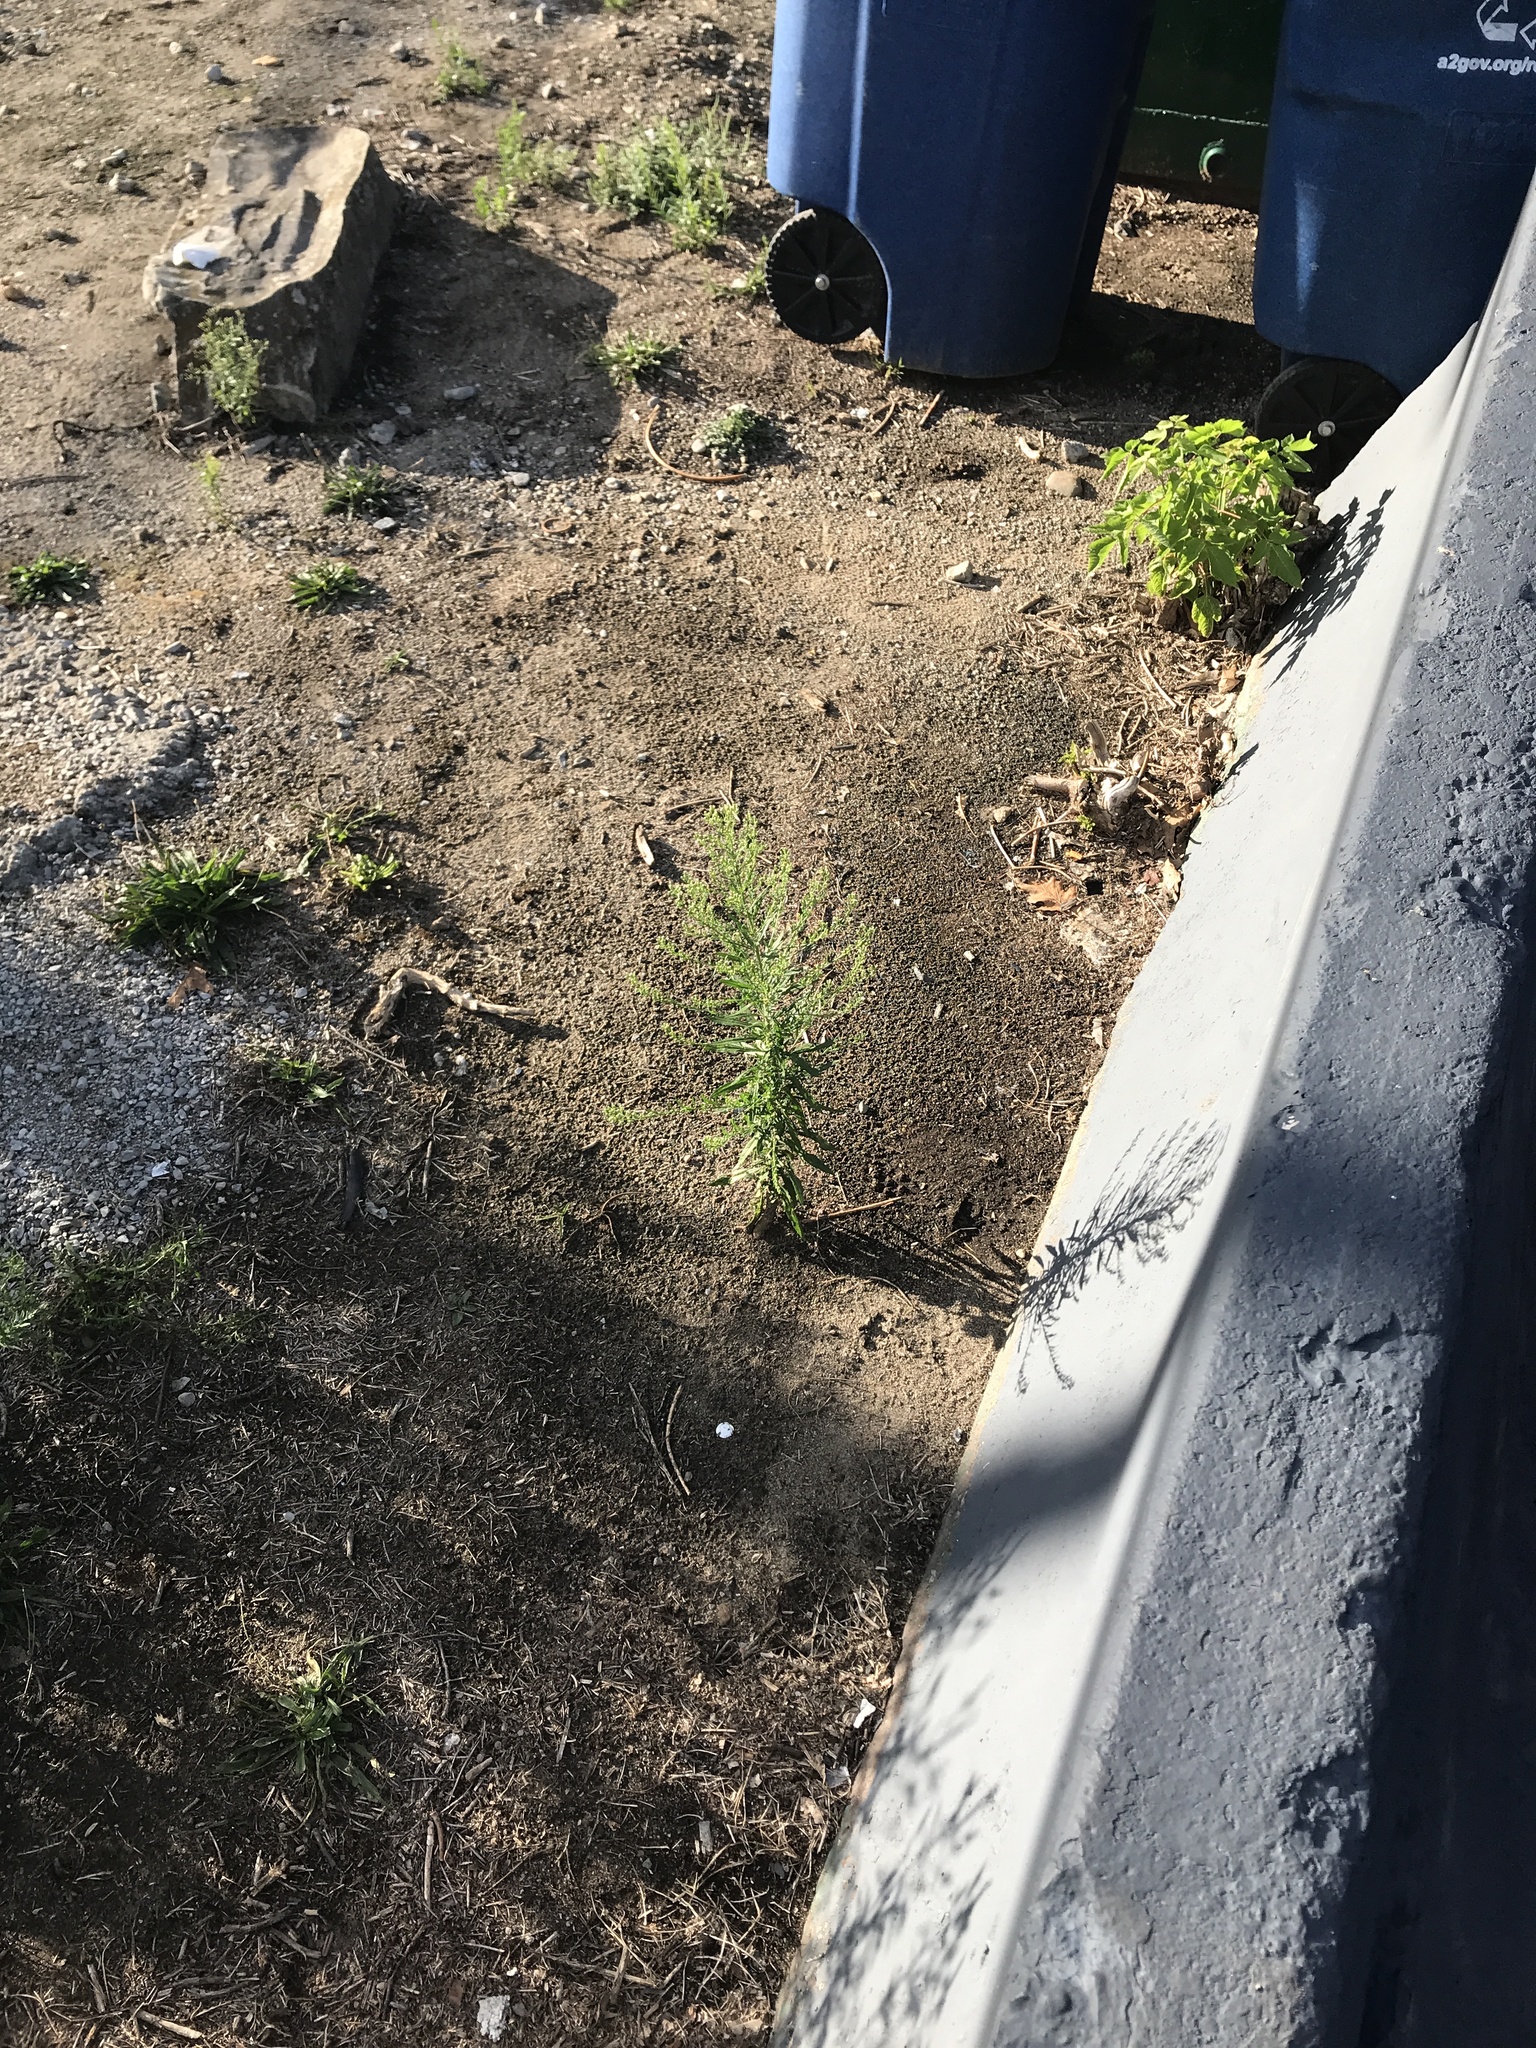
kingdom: Plantae
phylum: Tracheophyta
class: Magnoliopsida
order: Asterales
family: Asteraceae
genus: Erigeron
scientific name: Erigeron canadensis
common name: Canadian fleabane
